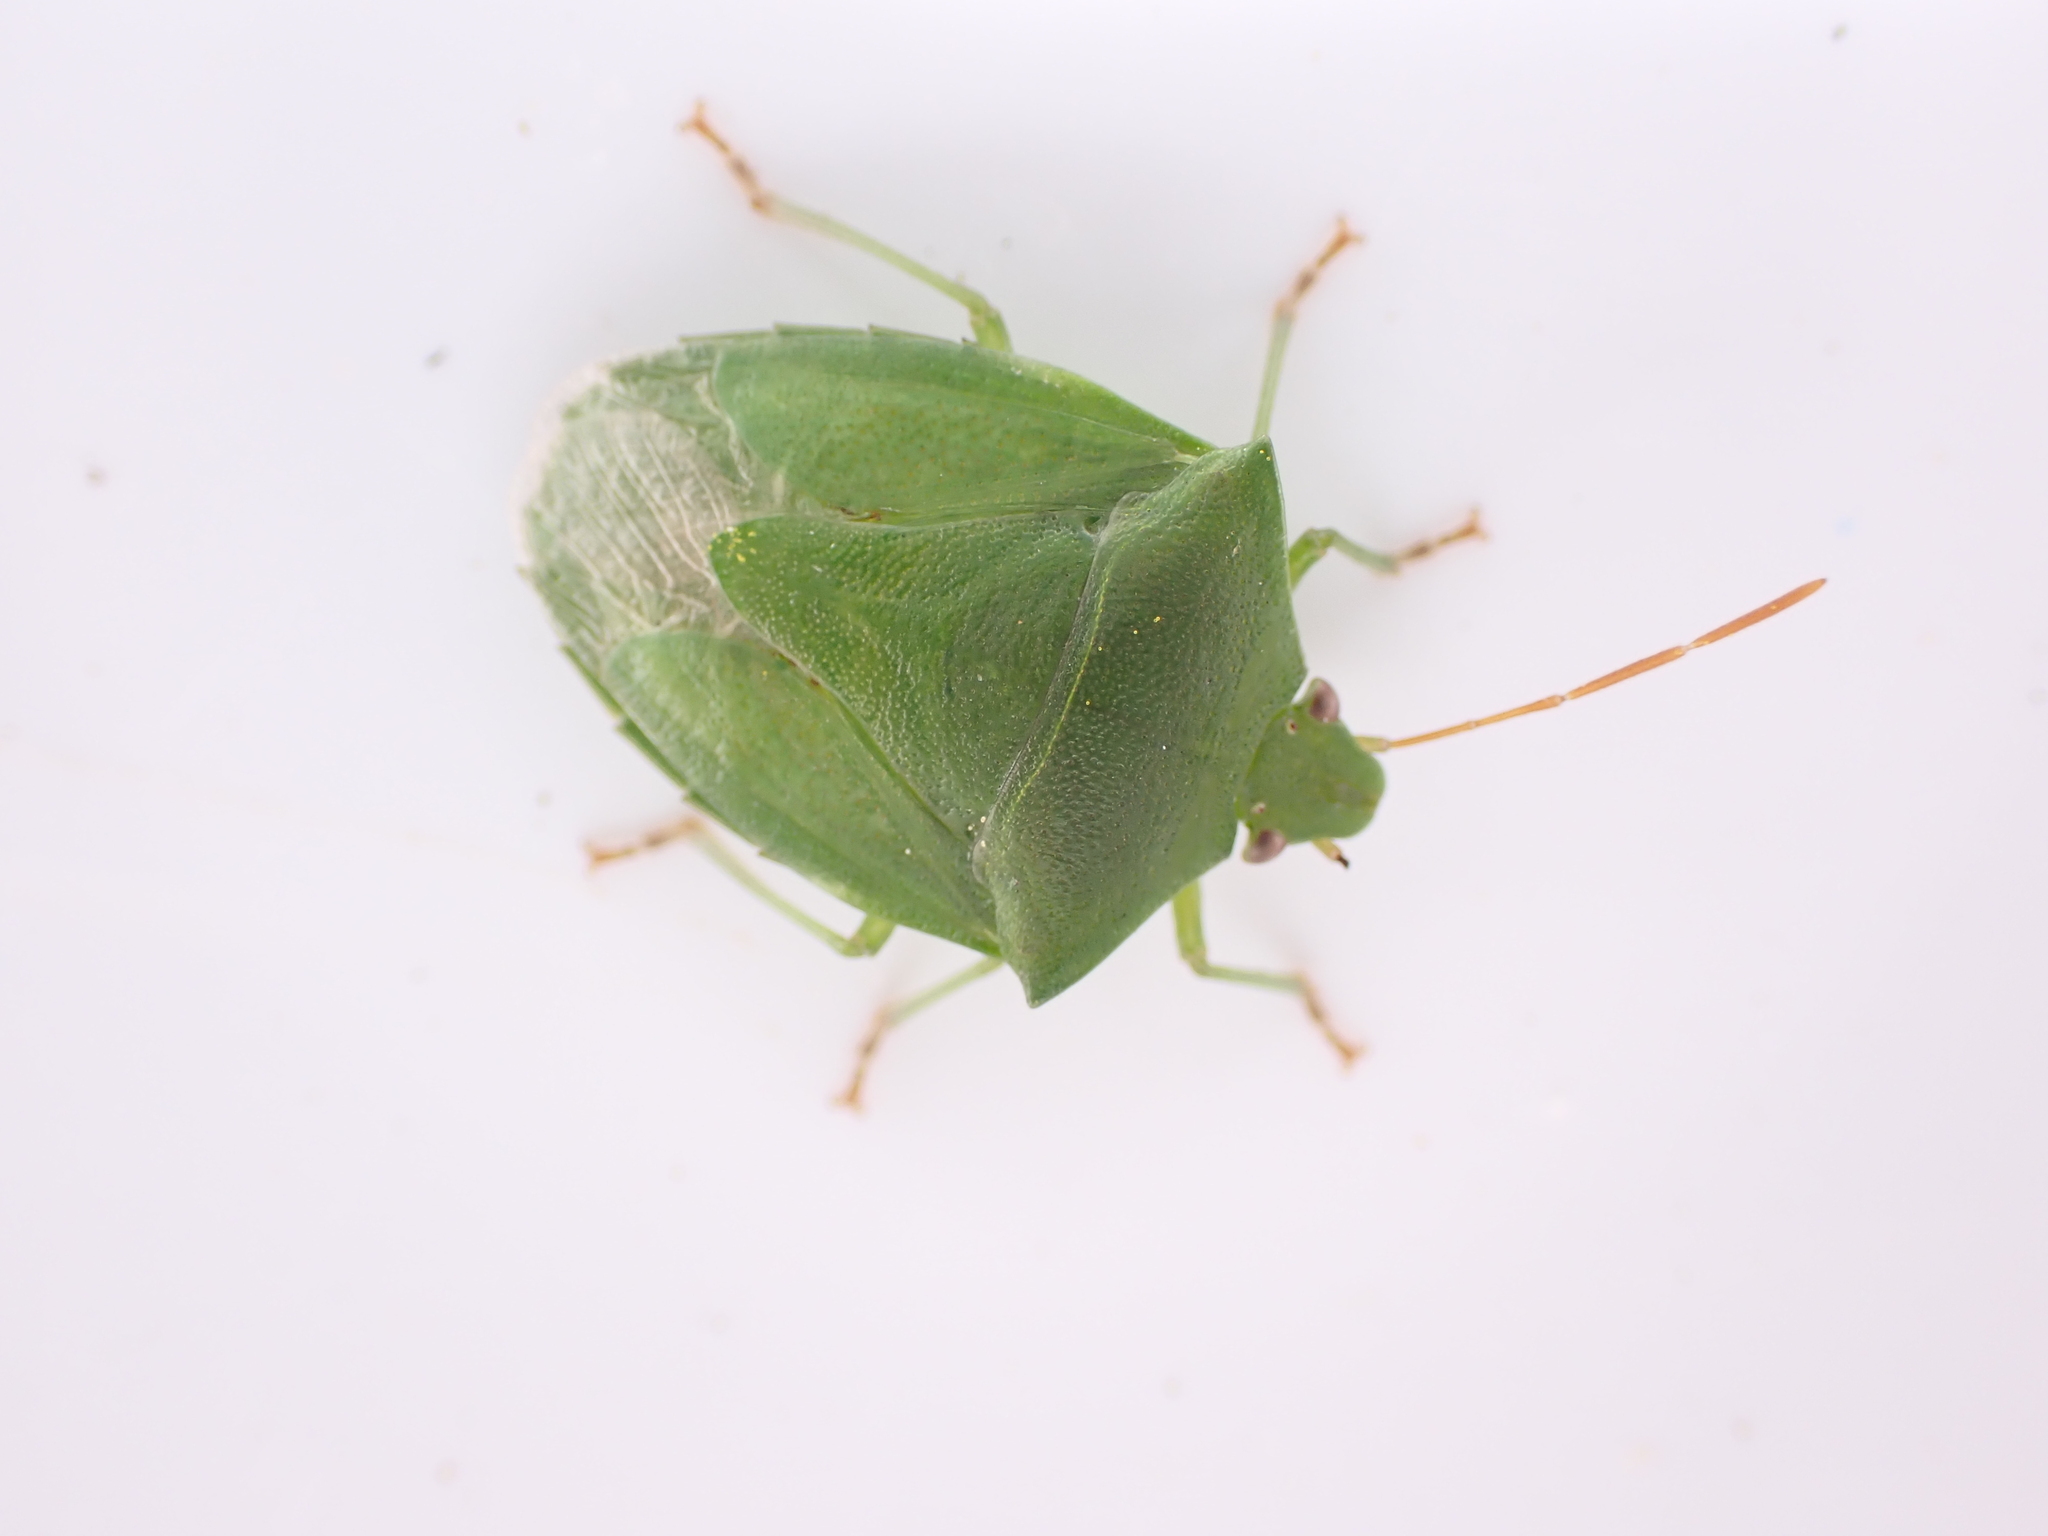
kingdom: Animalia
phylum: Arthropoda
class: Insecta
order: Hemiptera
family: Pentatomidae
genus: Cuspicona
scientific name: Cuspicona simplex
